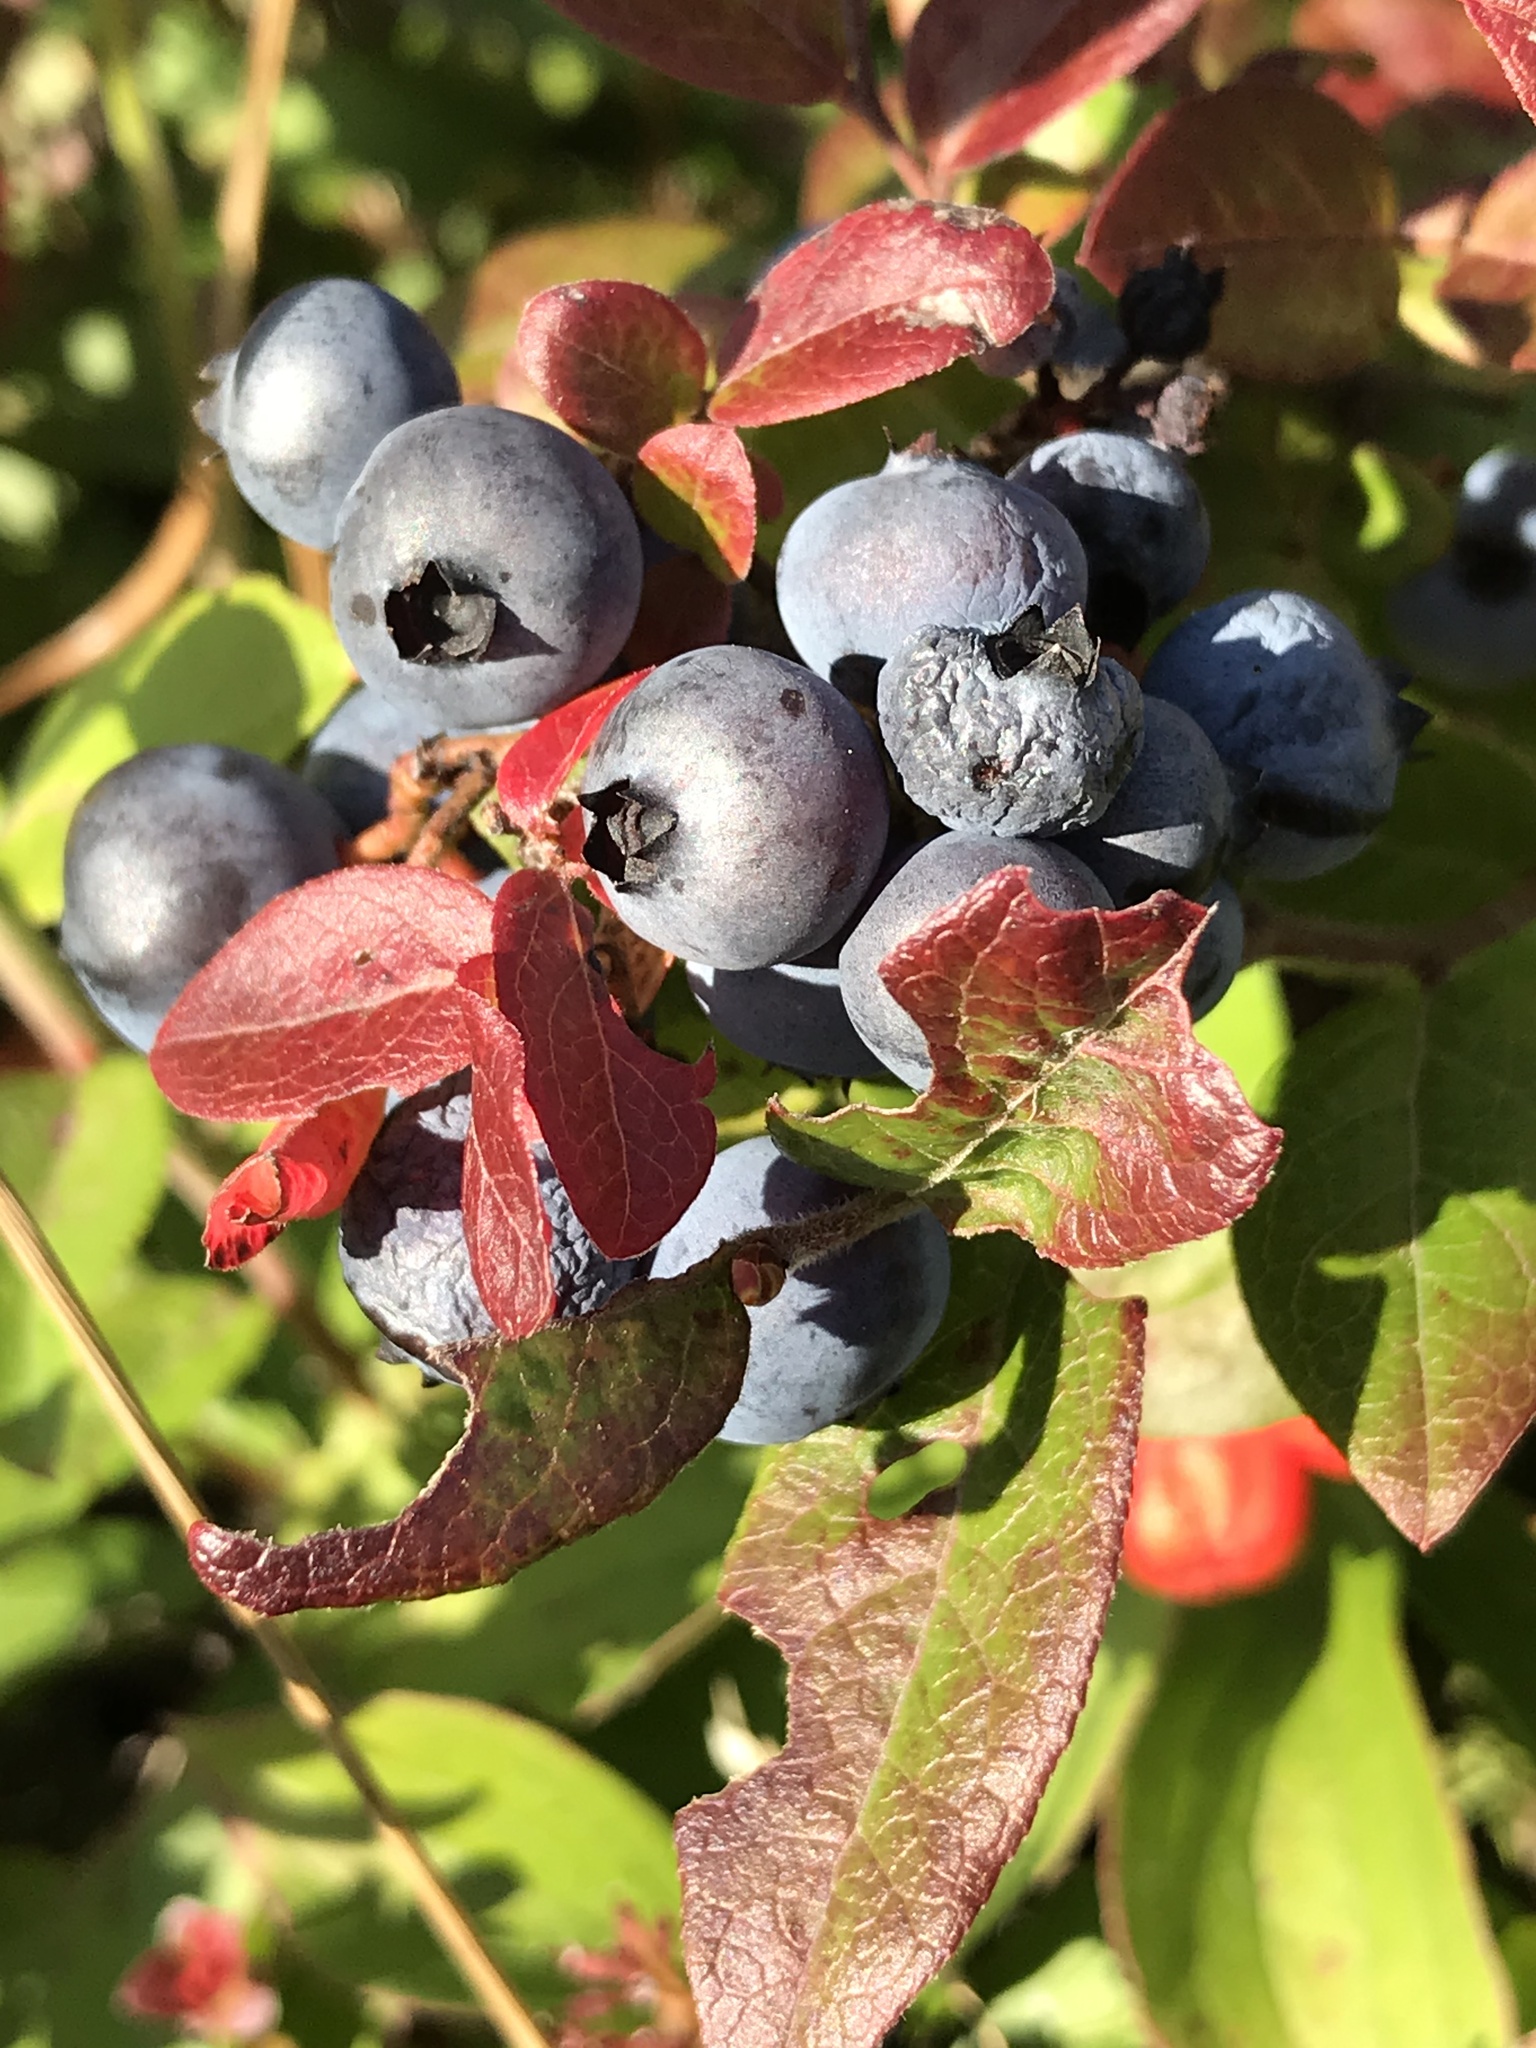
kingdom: Plantae
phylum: Tracheophyta
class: Magnoliopsida
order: Ericales
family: Ericaceae
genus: Vaccinium
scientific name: Vaccinium angustifolium
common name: Early lowbush blueberry
